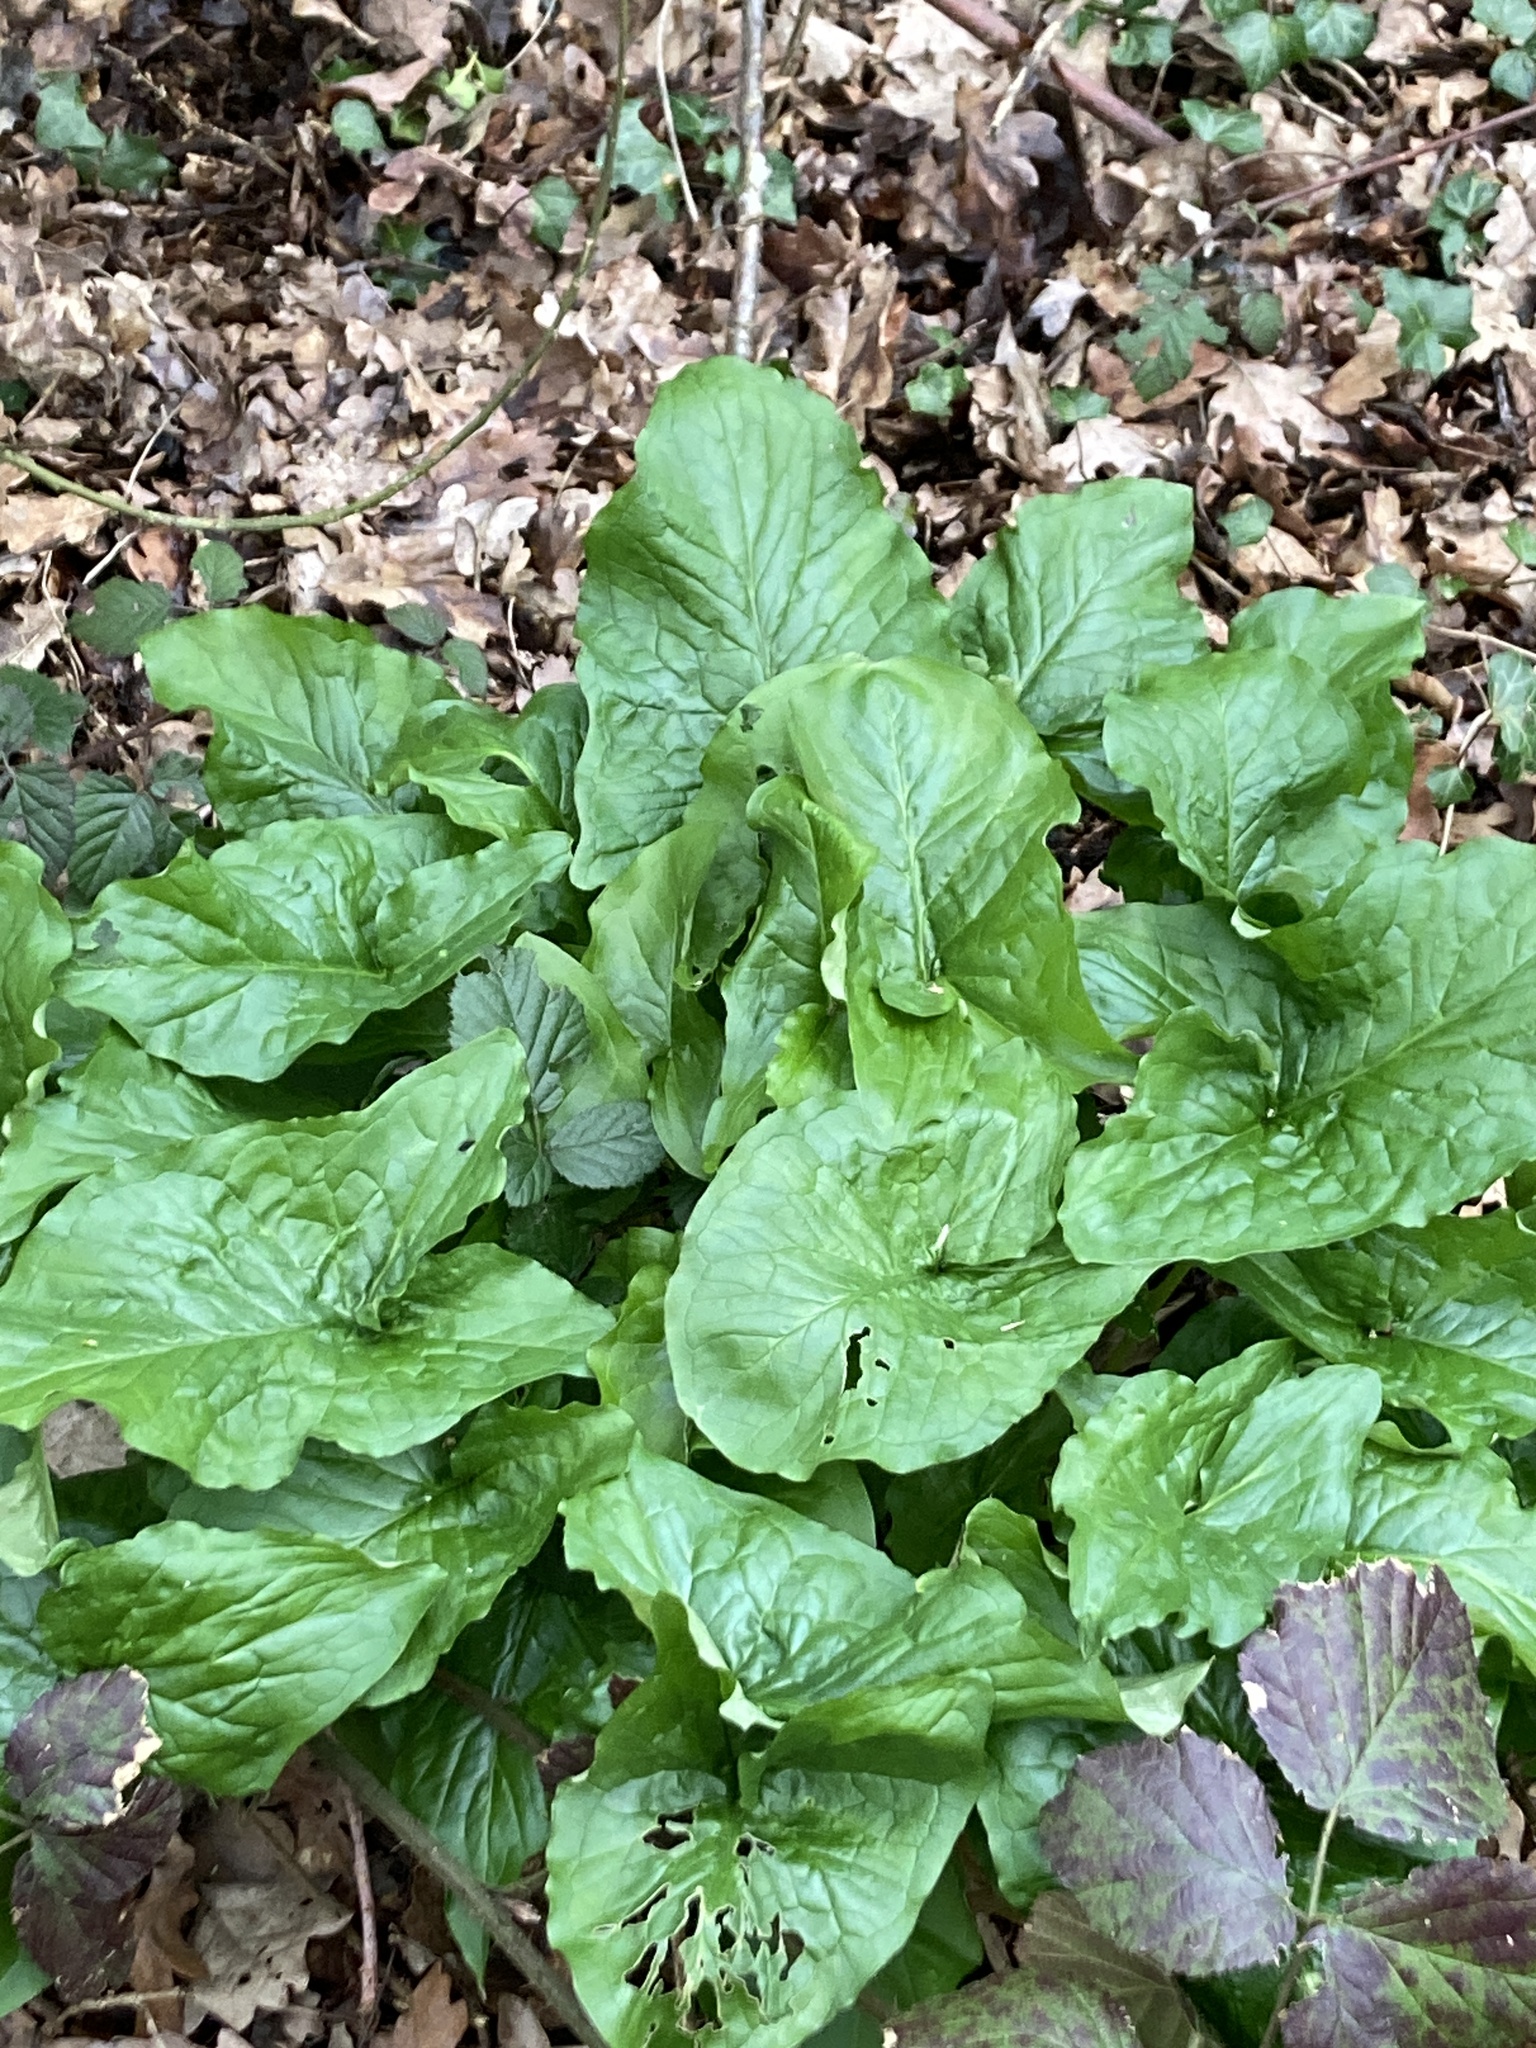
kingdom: Plantae
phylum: Tracheophyta
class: Liliopsida
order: Alismatales
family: Araceae
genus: Arum
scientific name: Arum maculatum
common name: Lords-and-ladies
